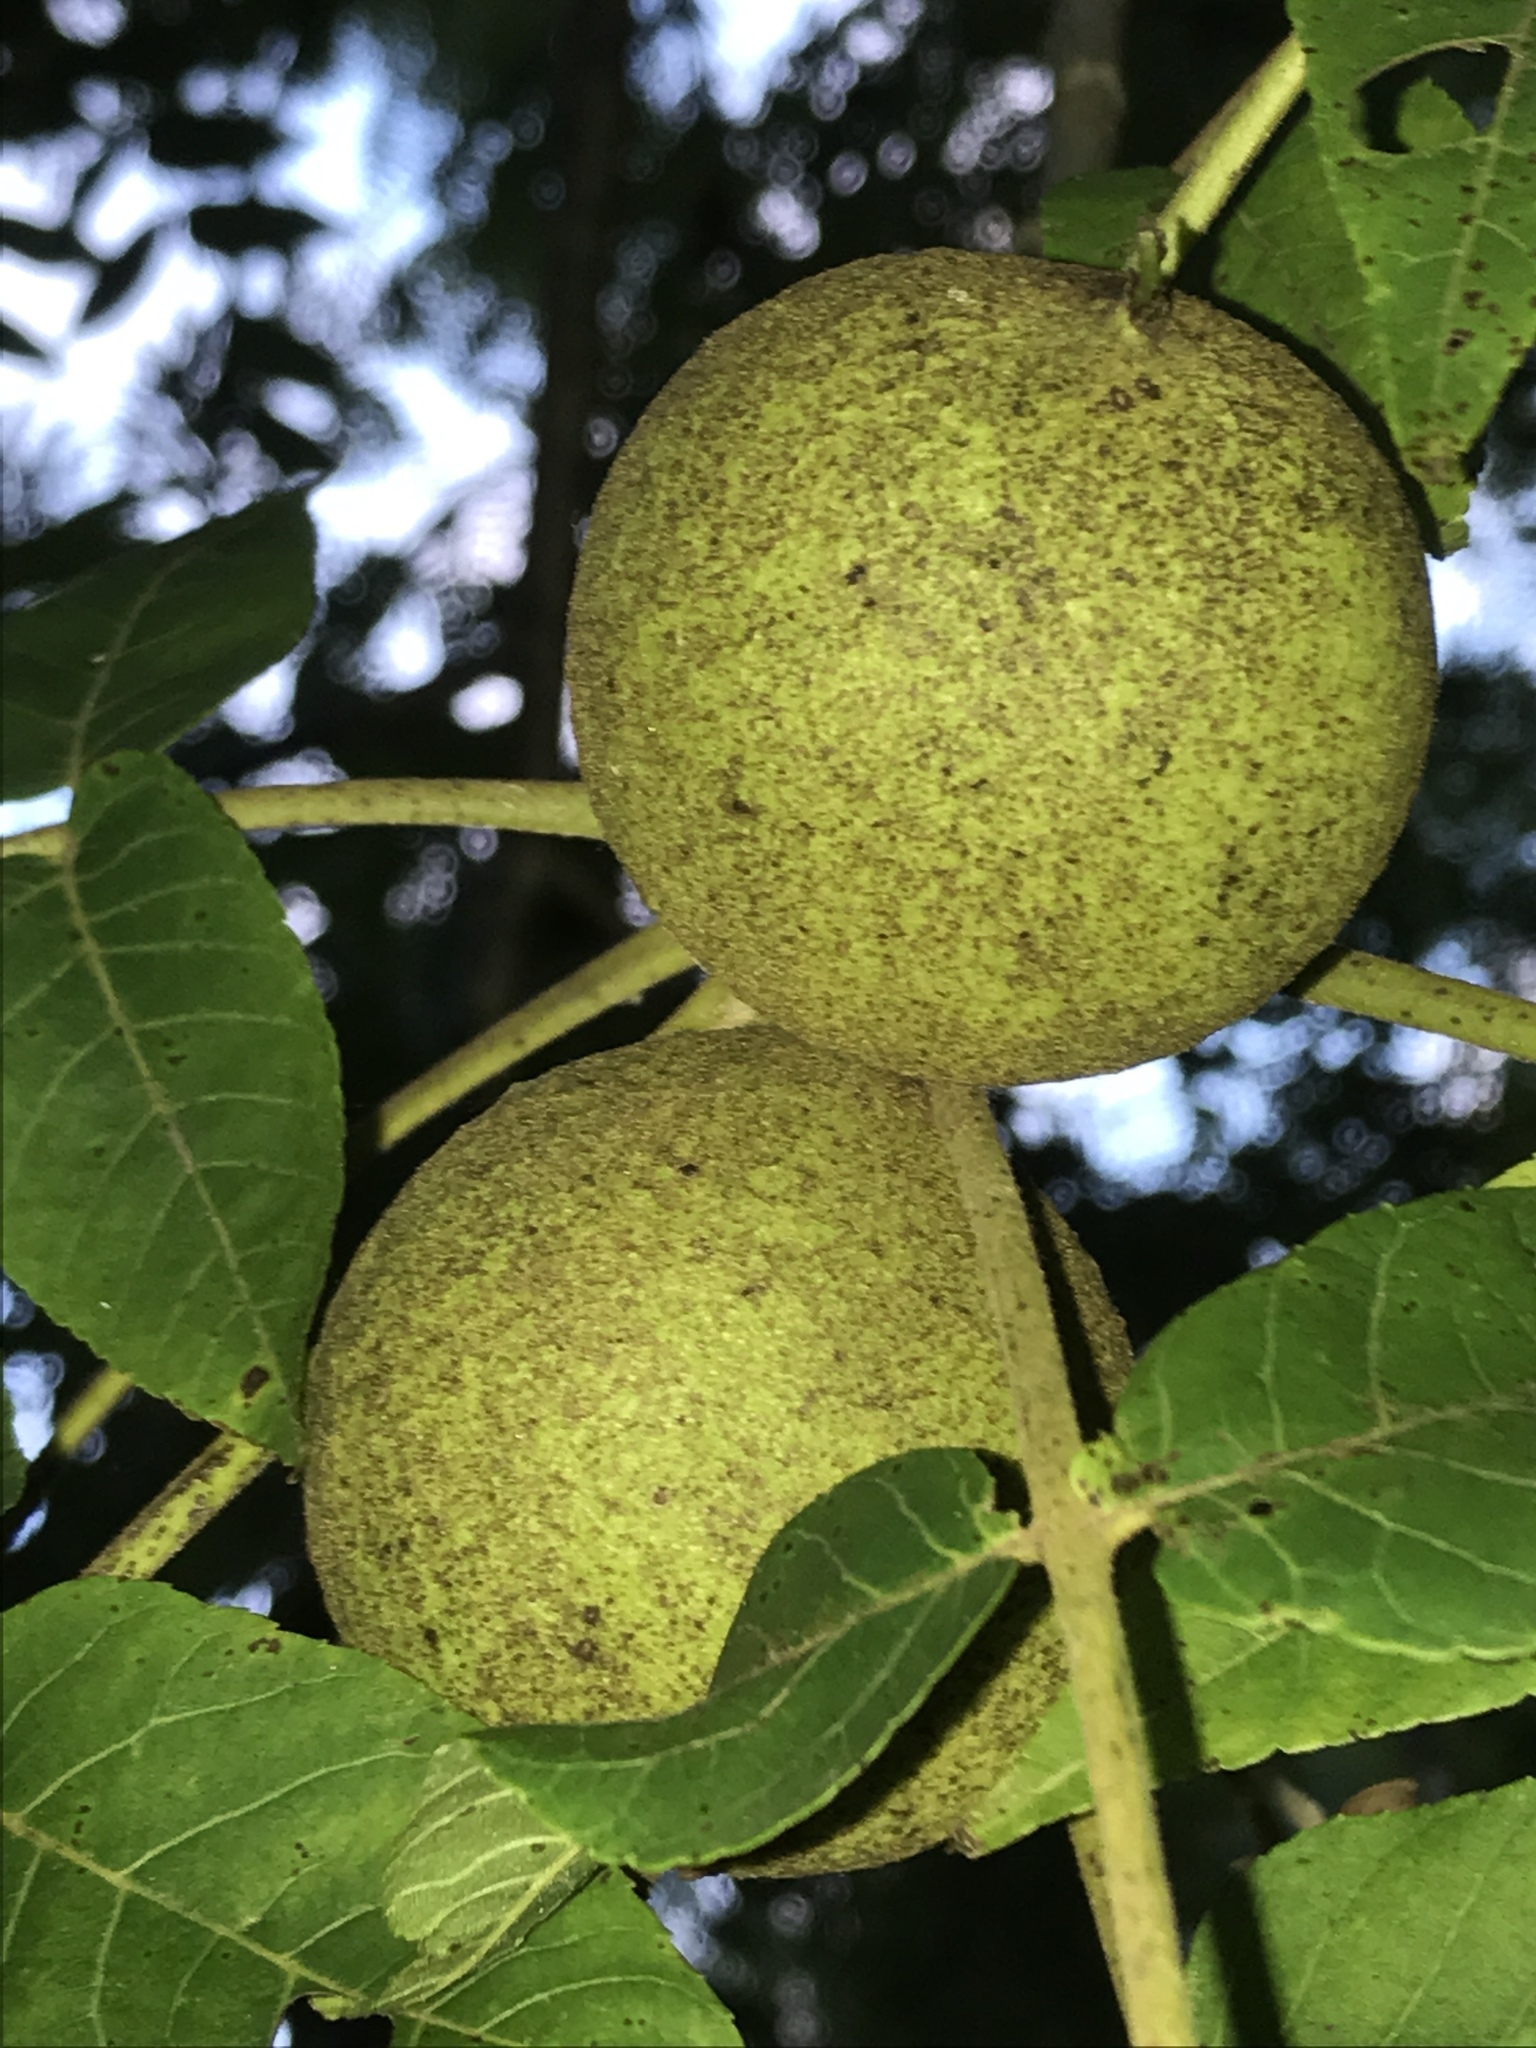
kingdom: Plantae
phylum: Tracheophyta
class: Magnoliopsida
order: Fagales
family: Juglandaceae
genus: Juglans
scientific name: Juglans nigra
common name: Black walnut
